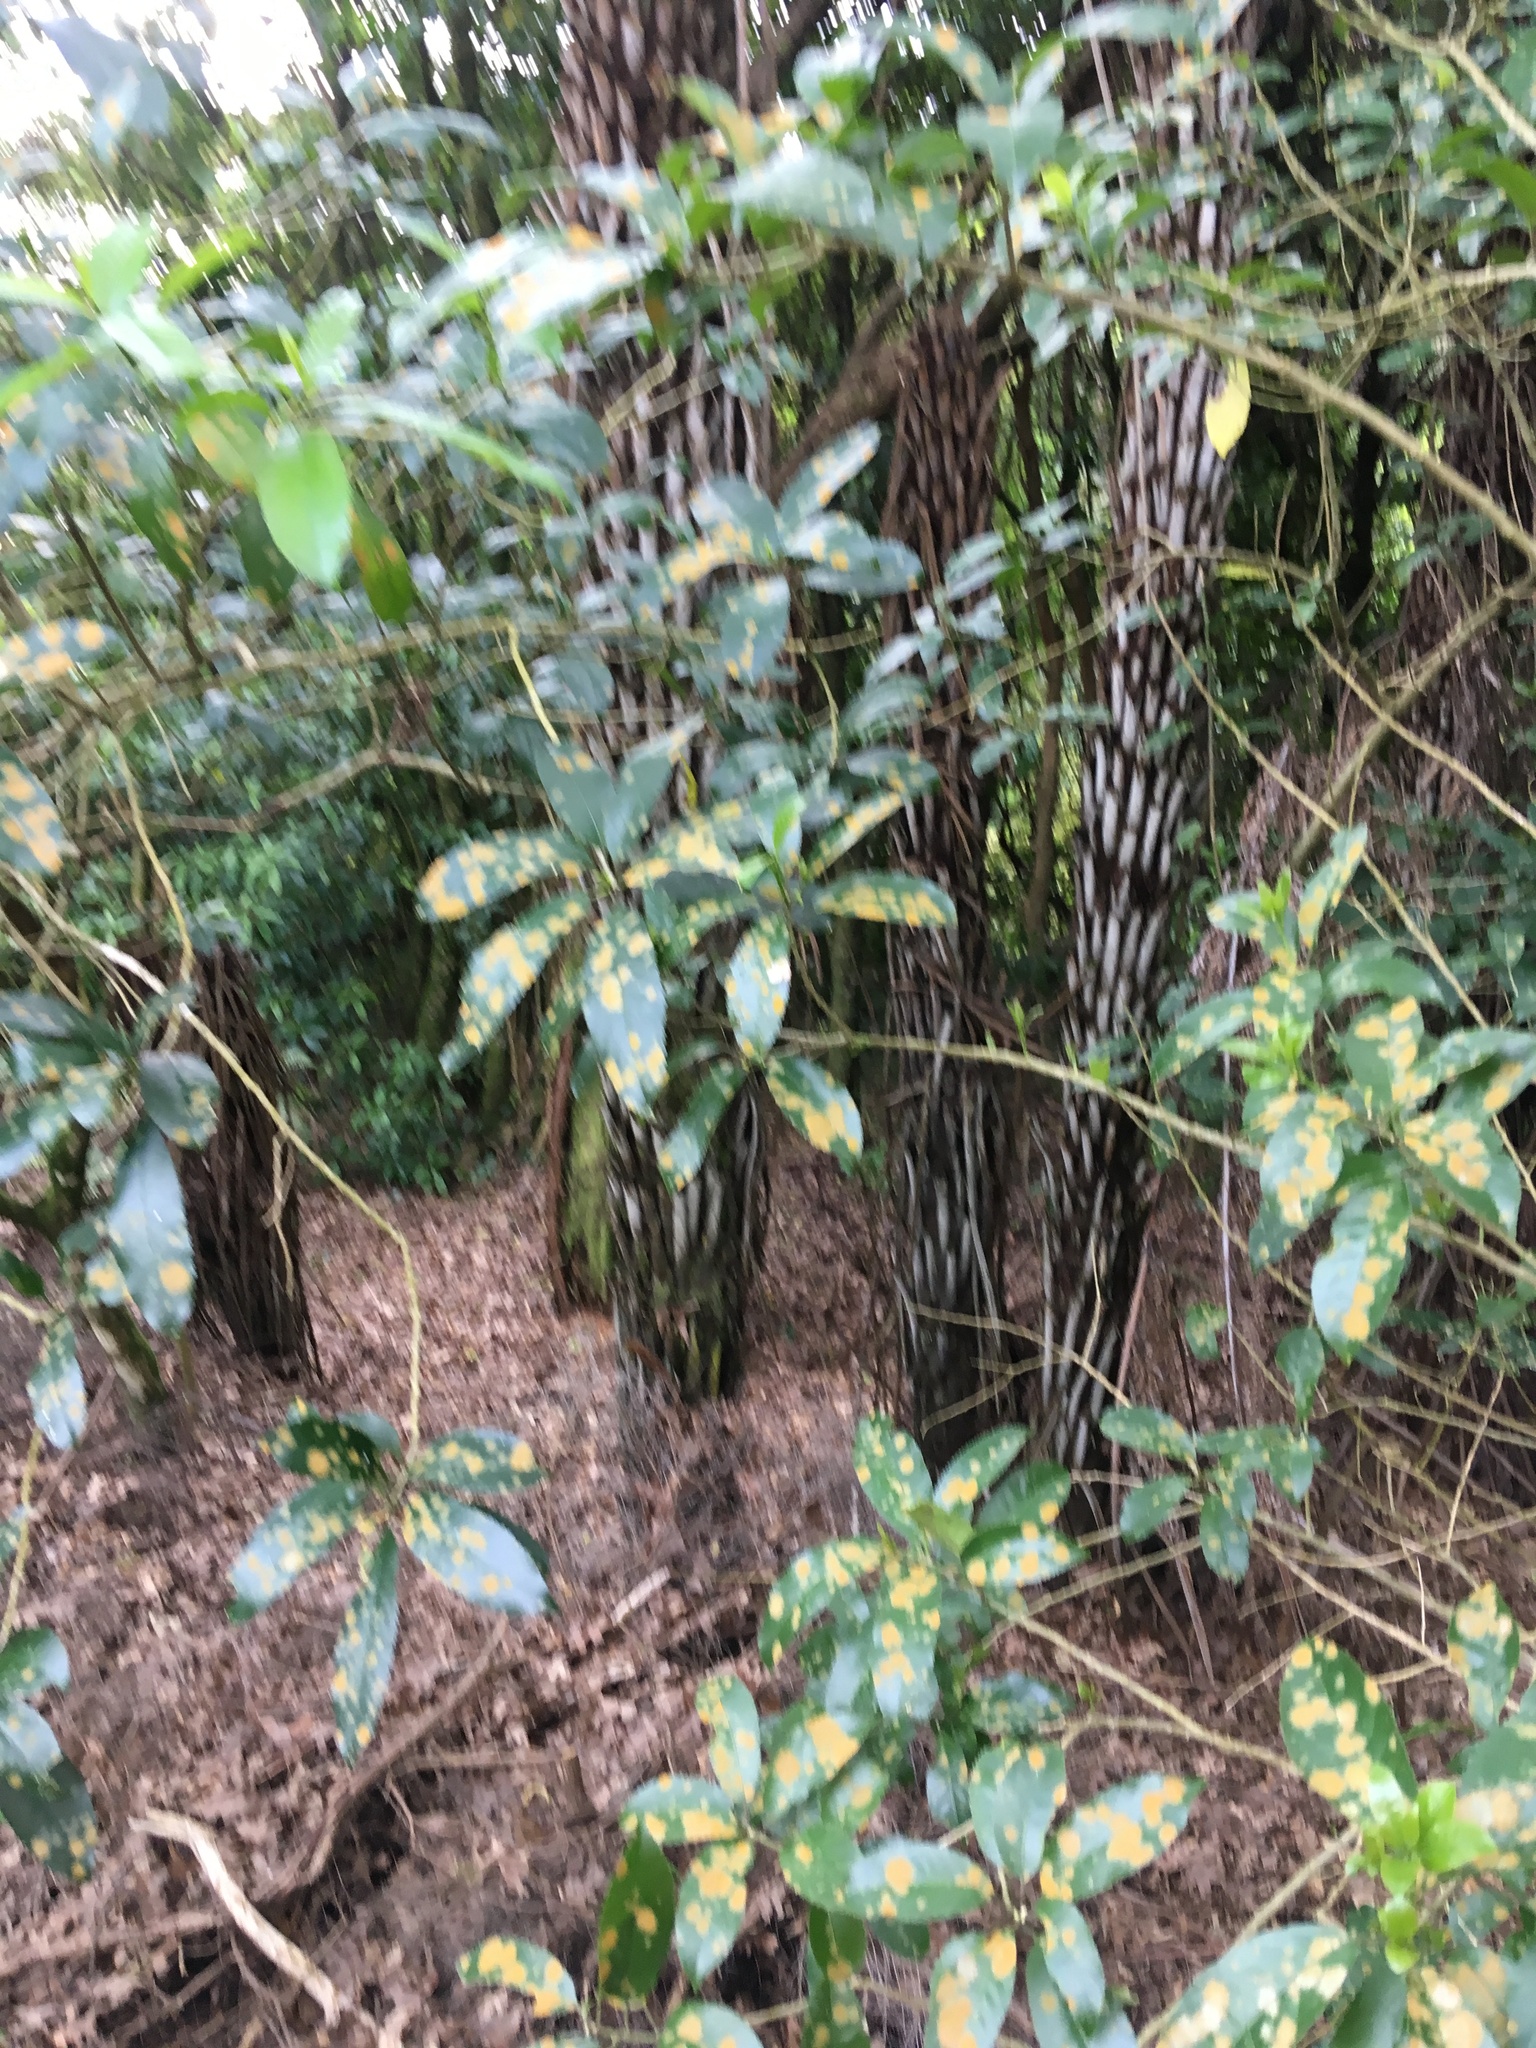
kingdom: Plantae
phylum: Chlorophyta
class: Ulvophyceae
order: Trentepohliales
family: Trentepohliaceae
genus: Cephaleuros
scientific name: Cephaleuros
